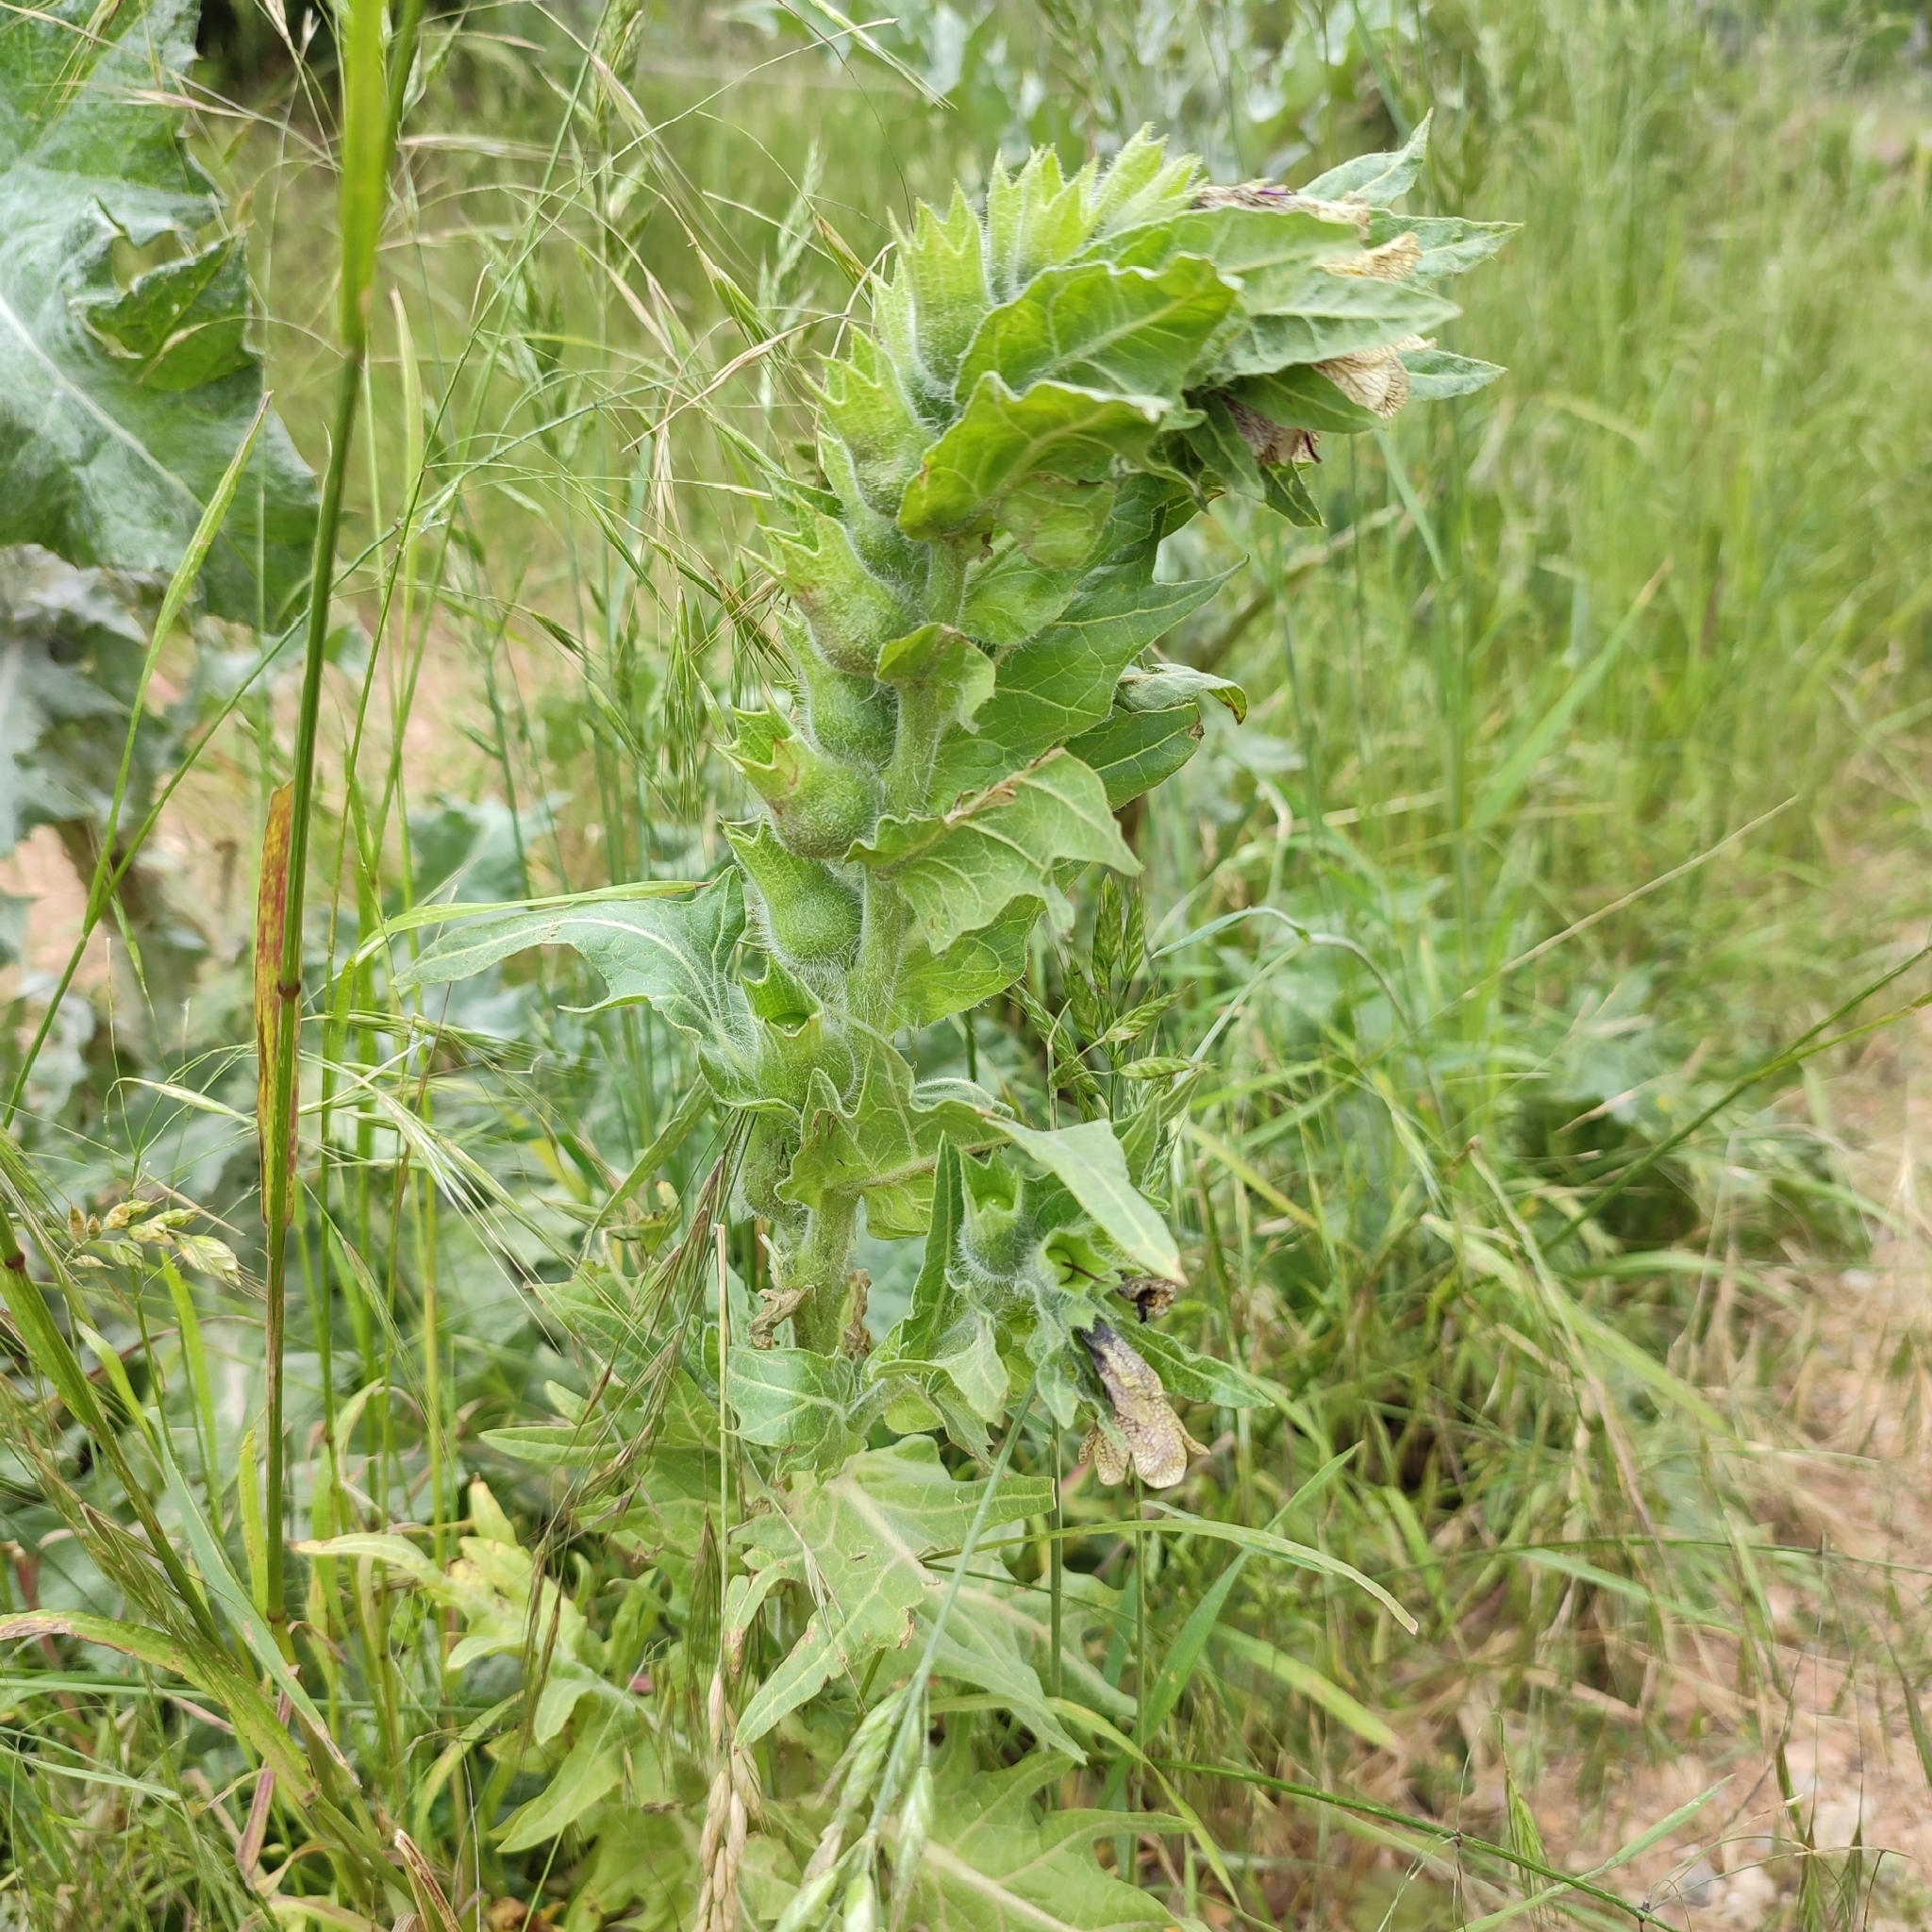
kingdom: Plantae
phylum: Tracheophyta
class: Magnoliopsida
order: Solanales
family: Solanaceae
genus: Hyoscyamus
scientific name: Hyoscyamus niger
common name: Henbane
